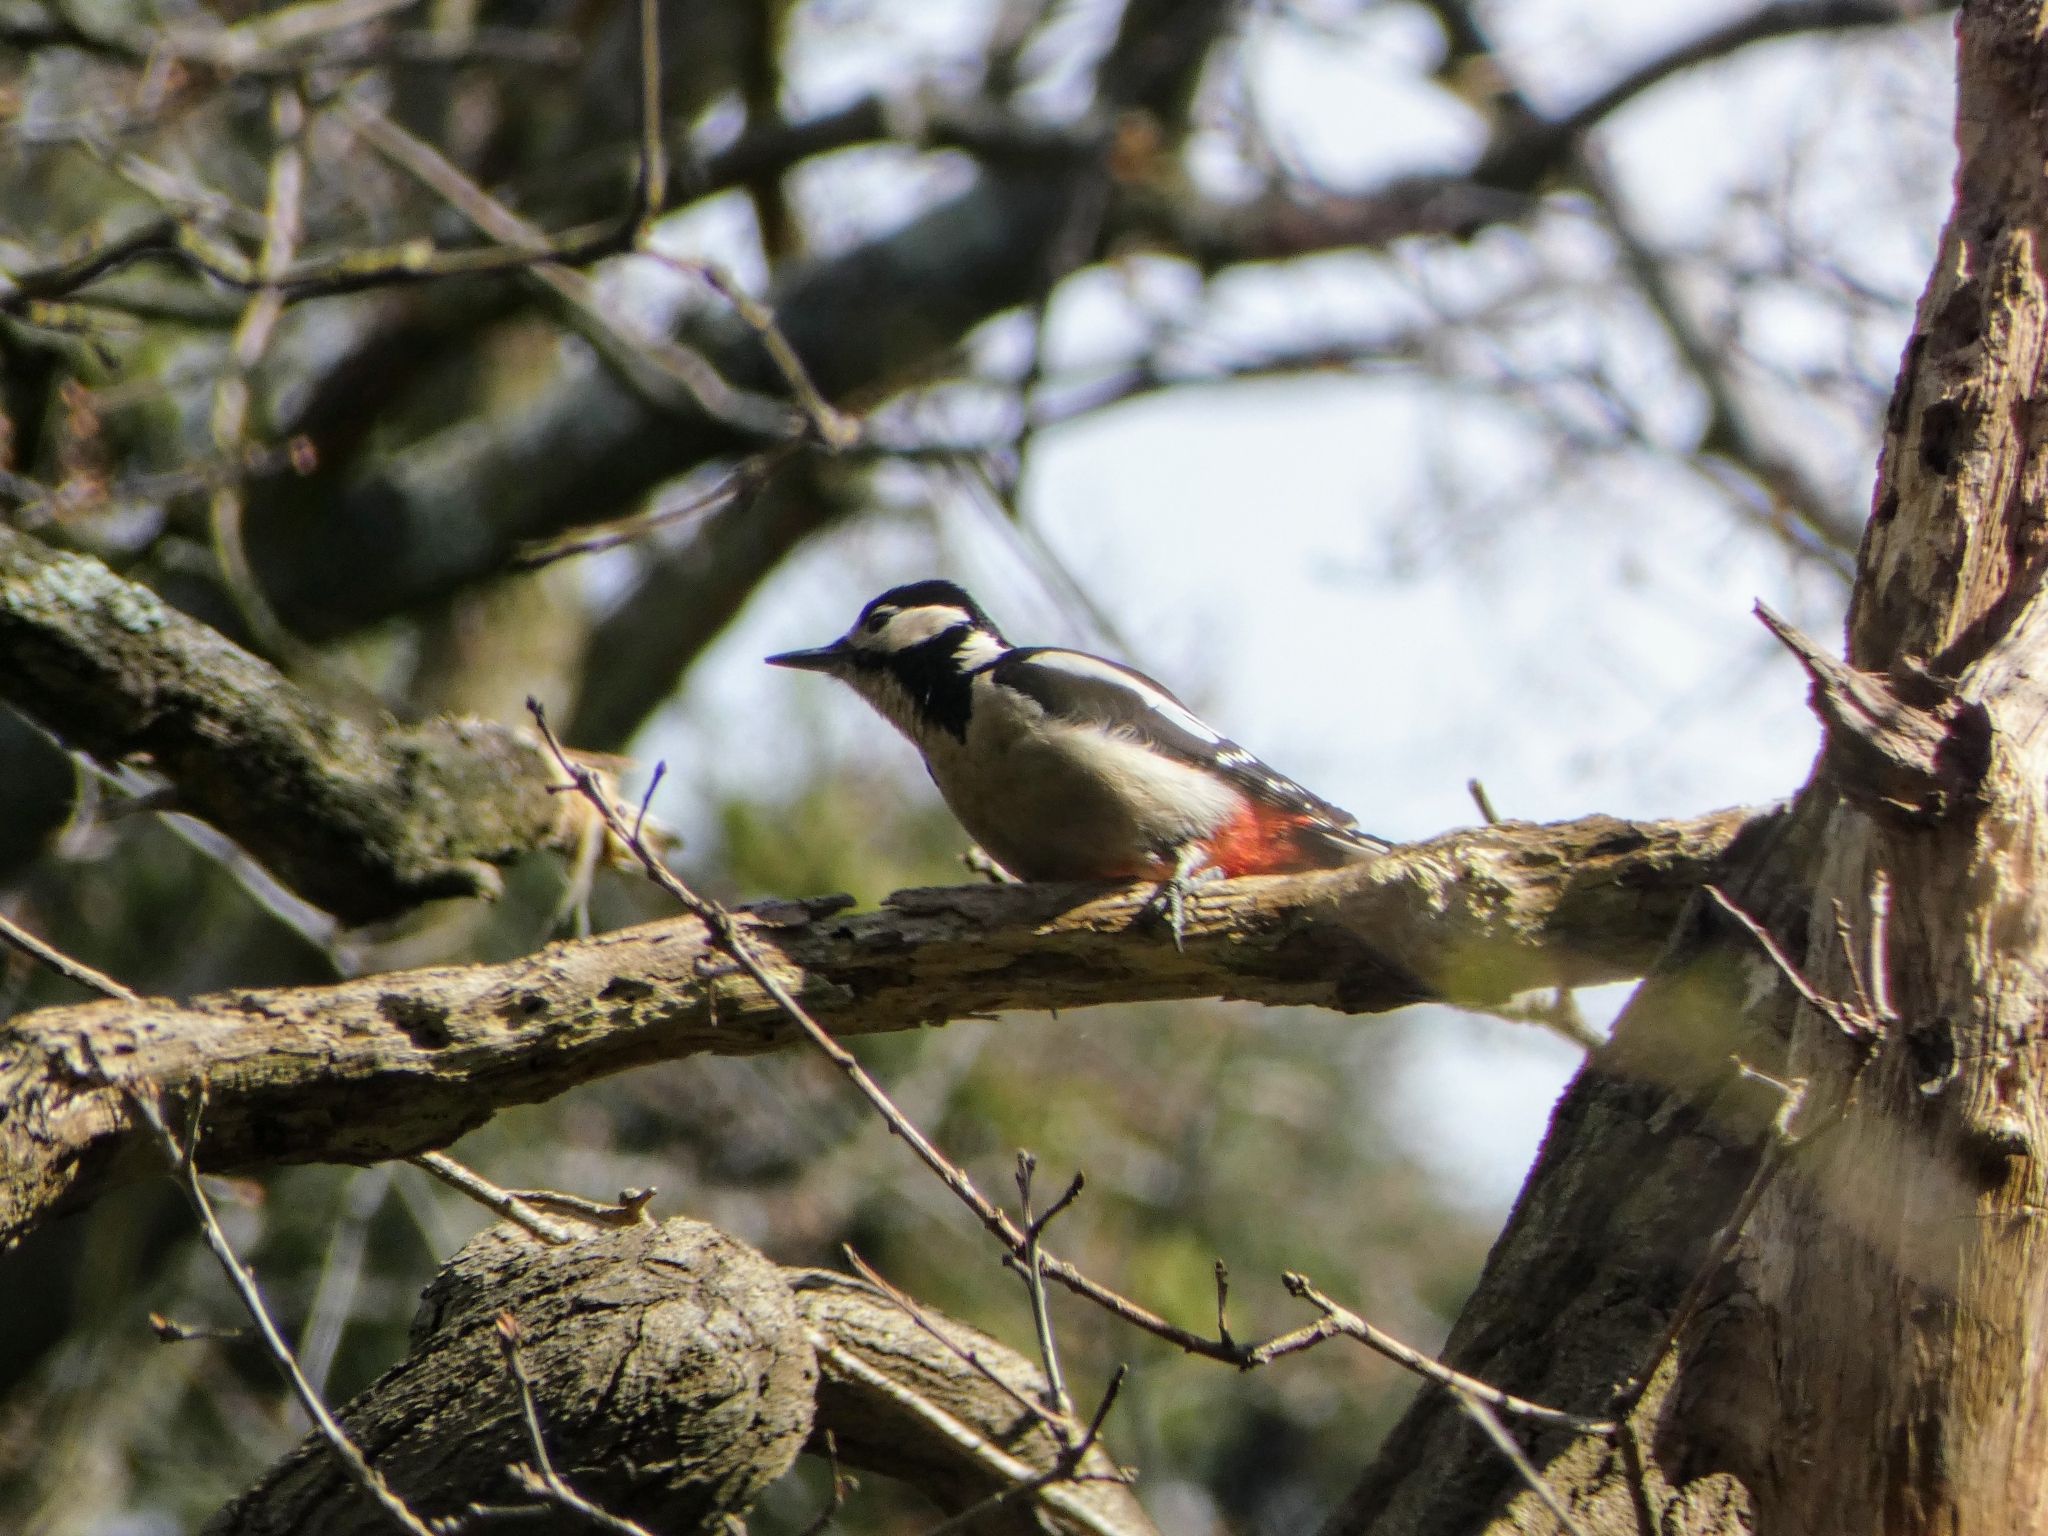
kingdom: Animalia
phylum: Chordata
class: Aves
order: Piciformes
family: Picidae
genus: Dendrocopos
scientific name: Dendrocopos major
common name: Great spotted woodpecker
